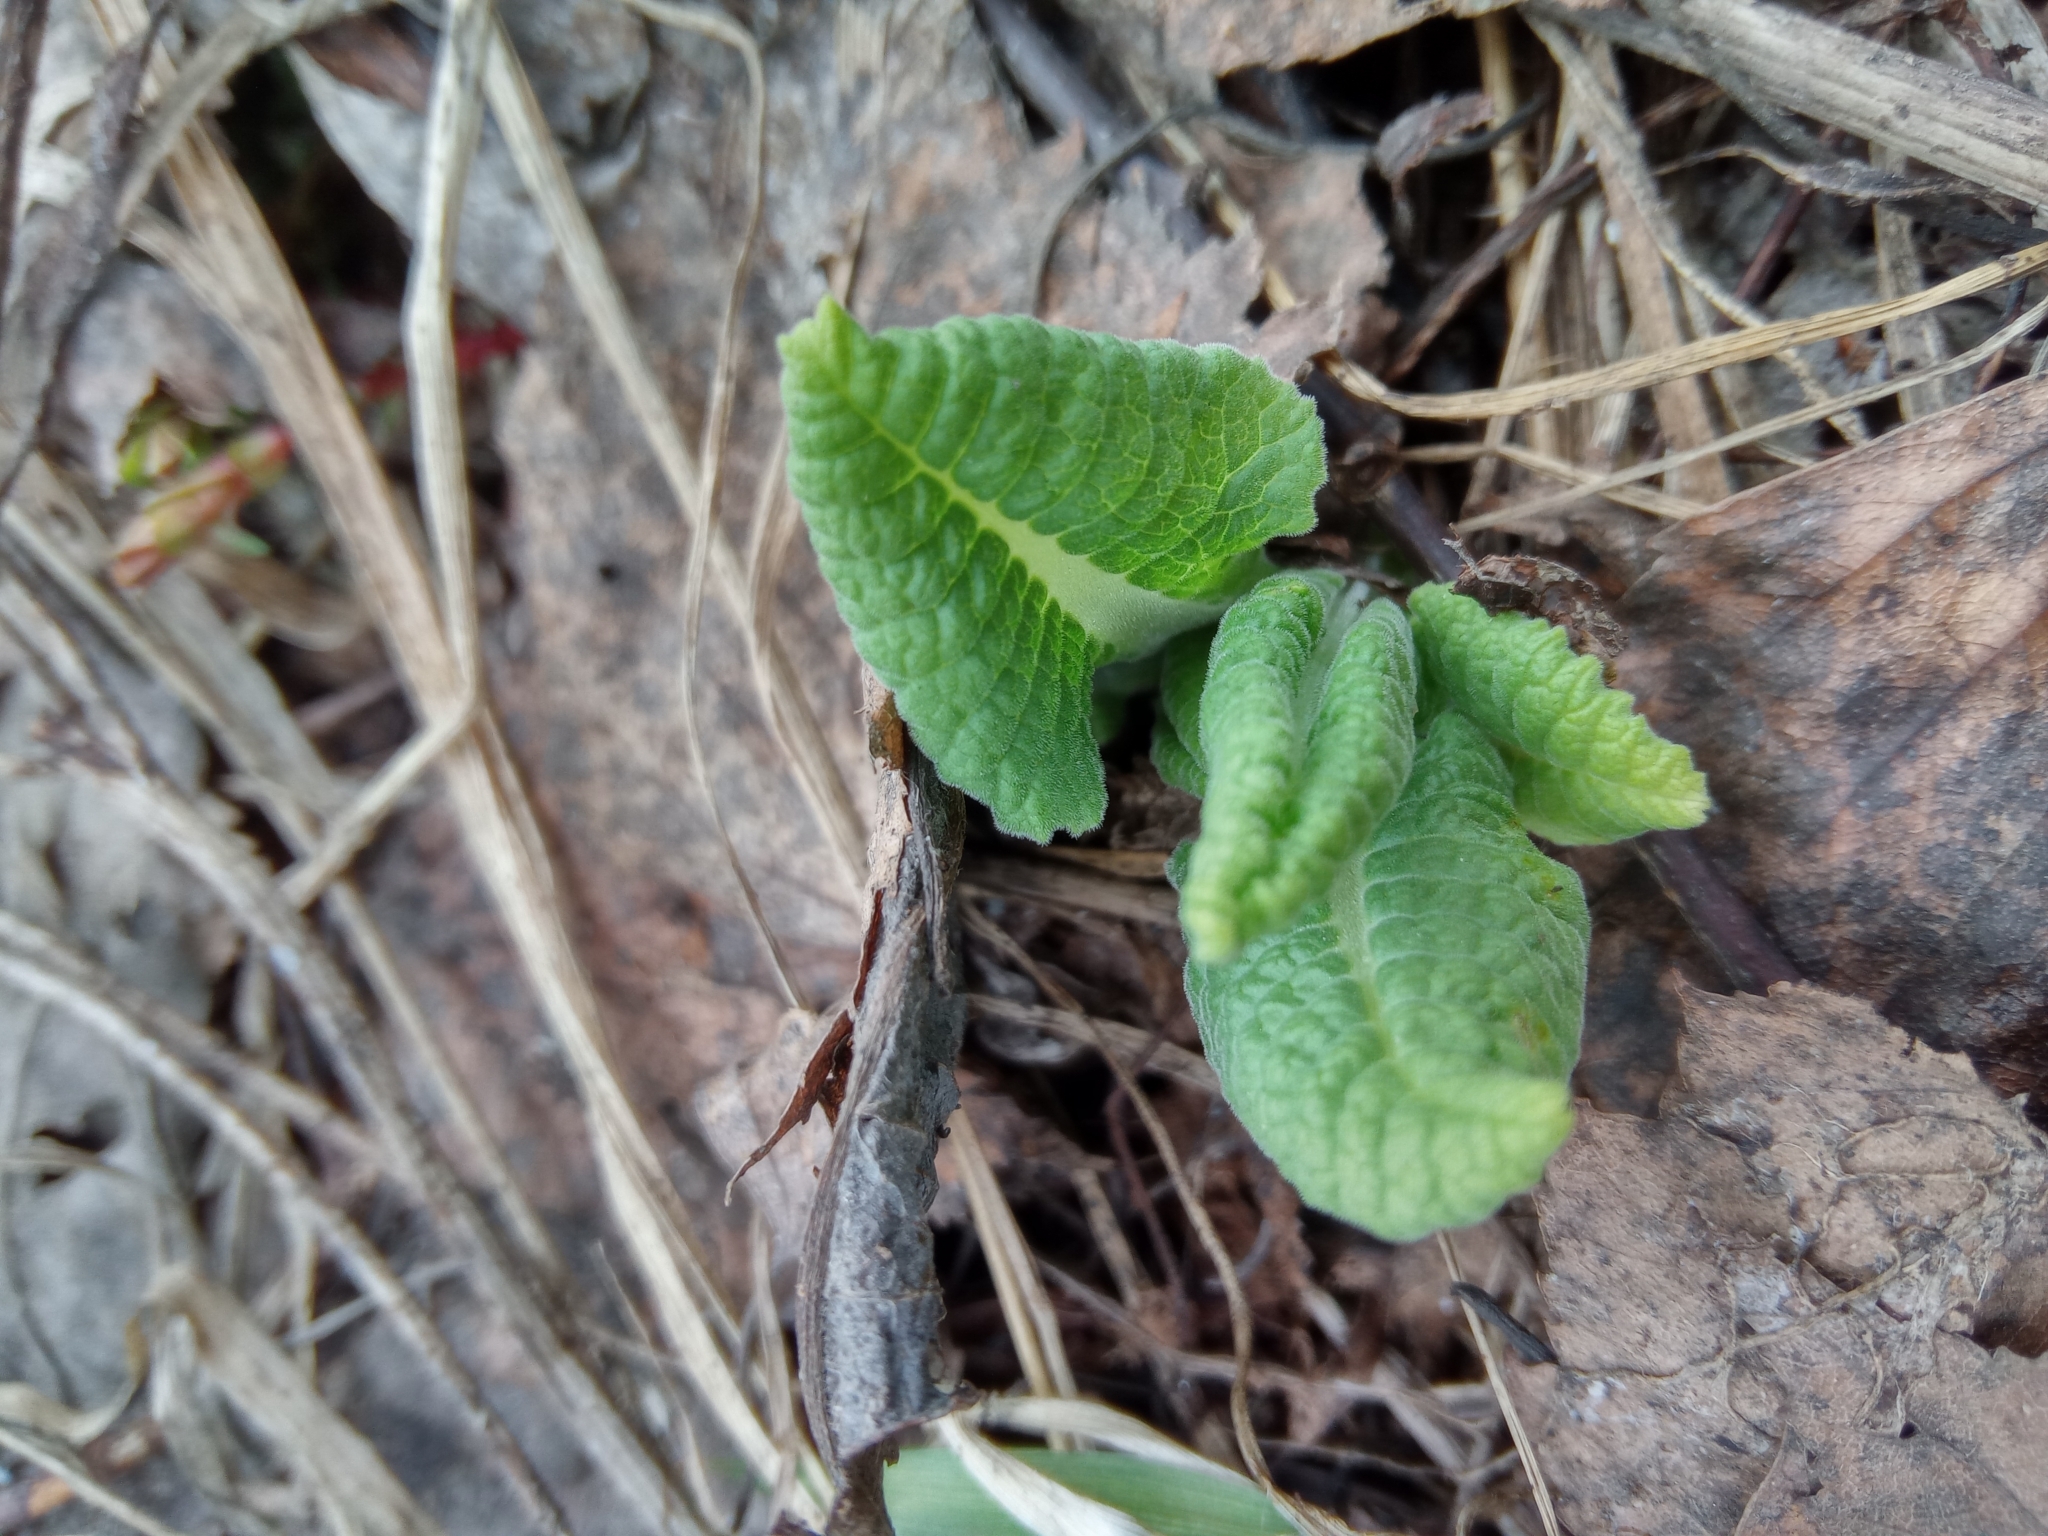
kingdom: Plantae
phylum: Tracheophyta
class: Magnoliopsida
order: Ericales
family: Primulaceae
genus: Primula
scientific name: Primula veris
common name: Cowslip
